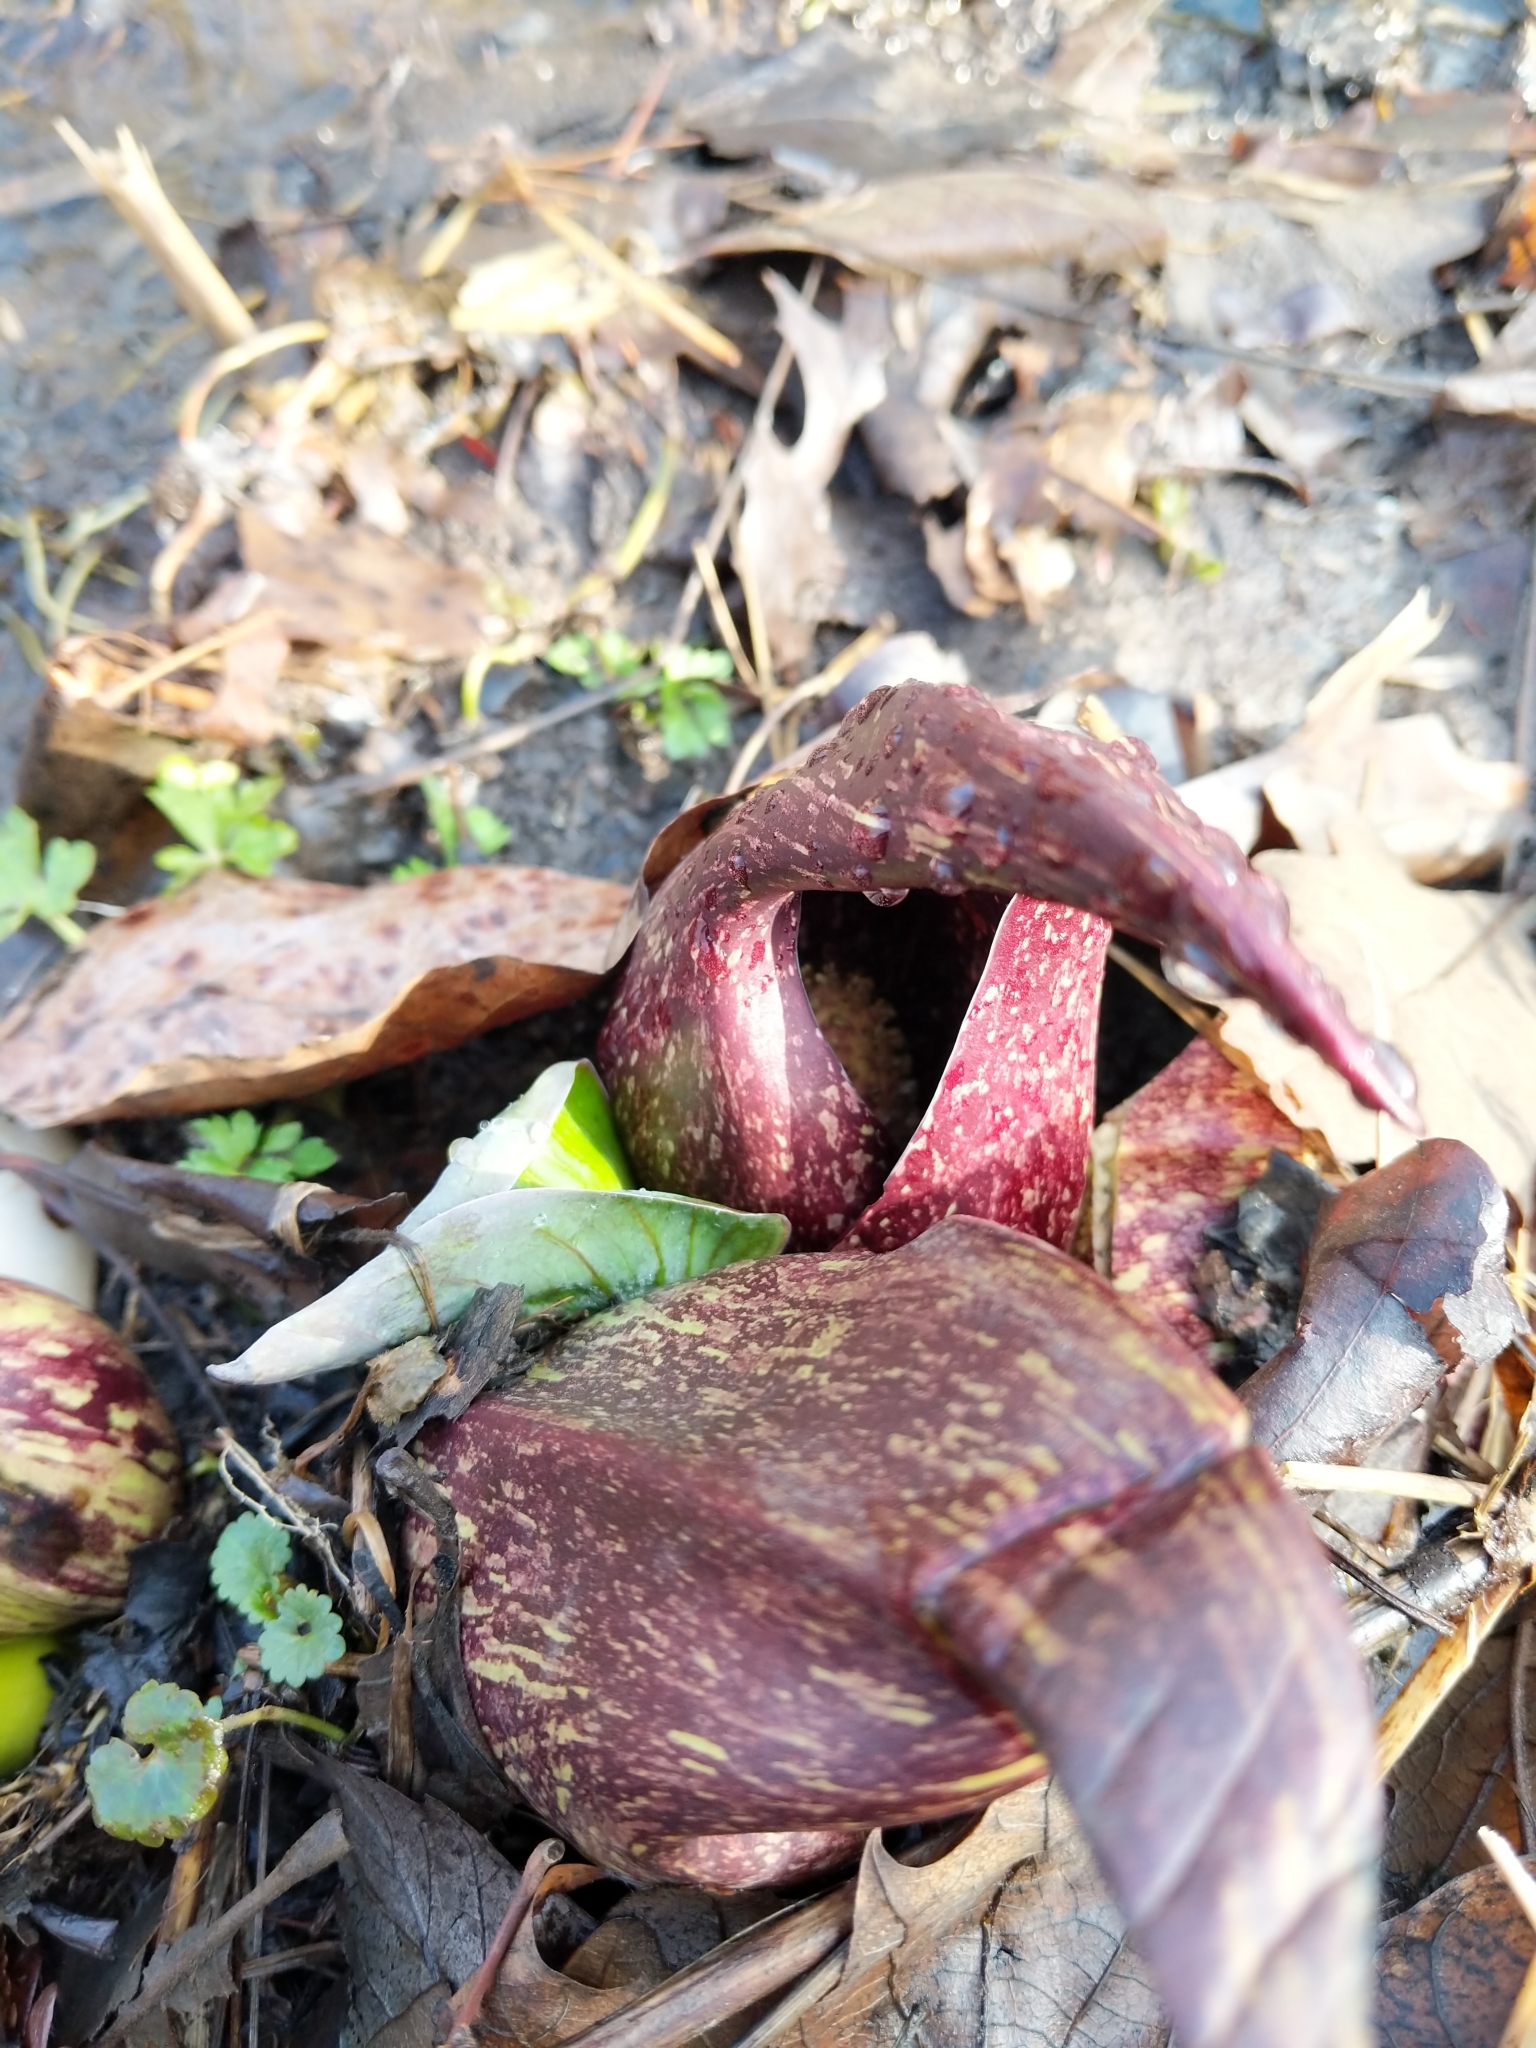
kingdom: Plantae
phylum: Tracheophyta
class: Liliopsida
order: Alismatales
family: Araceae
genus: Symplocarpus
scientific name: Symplocarpus foetidus
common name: Eastern skunk cabbage
